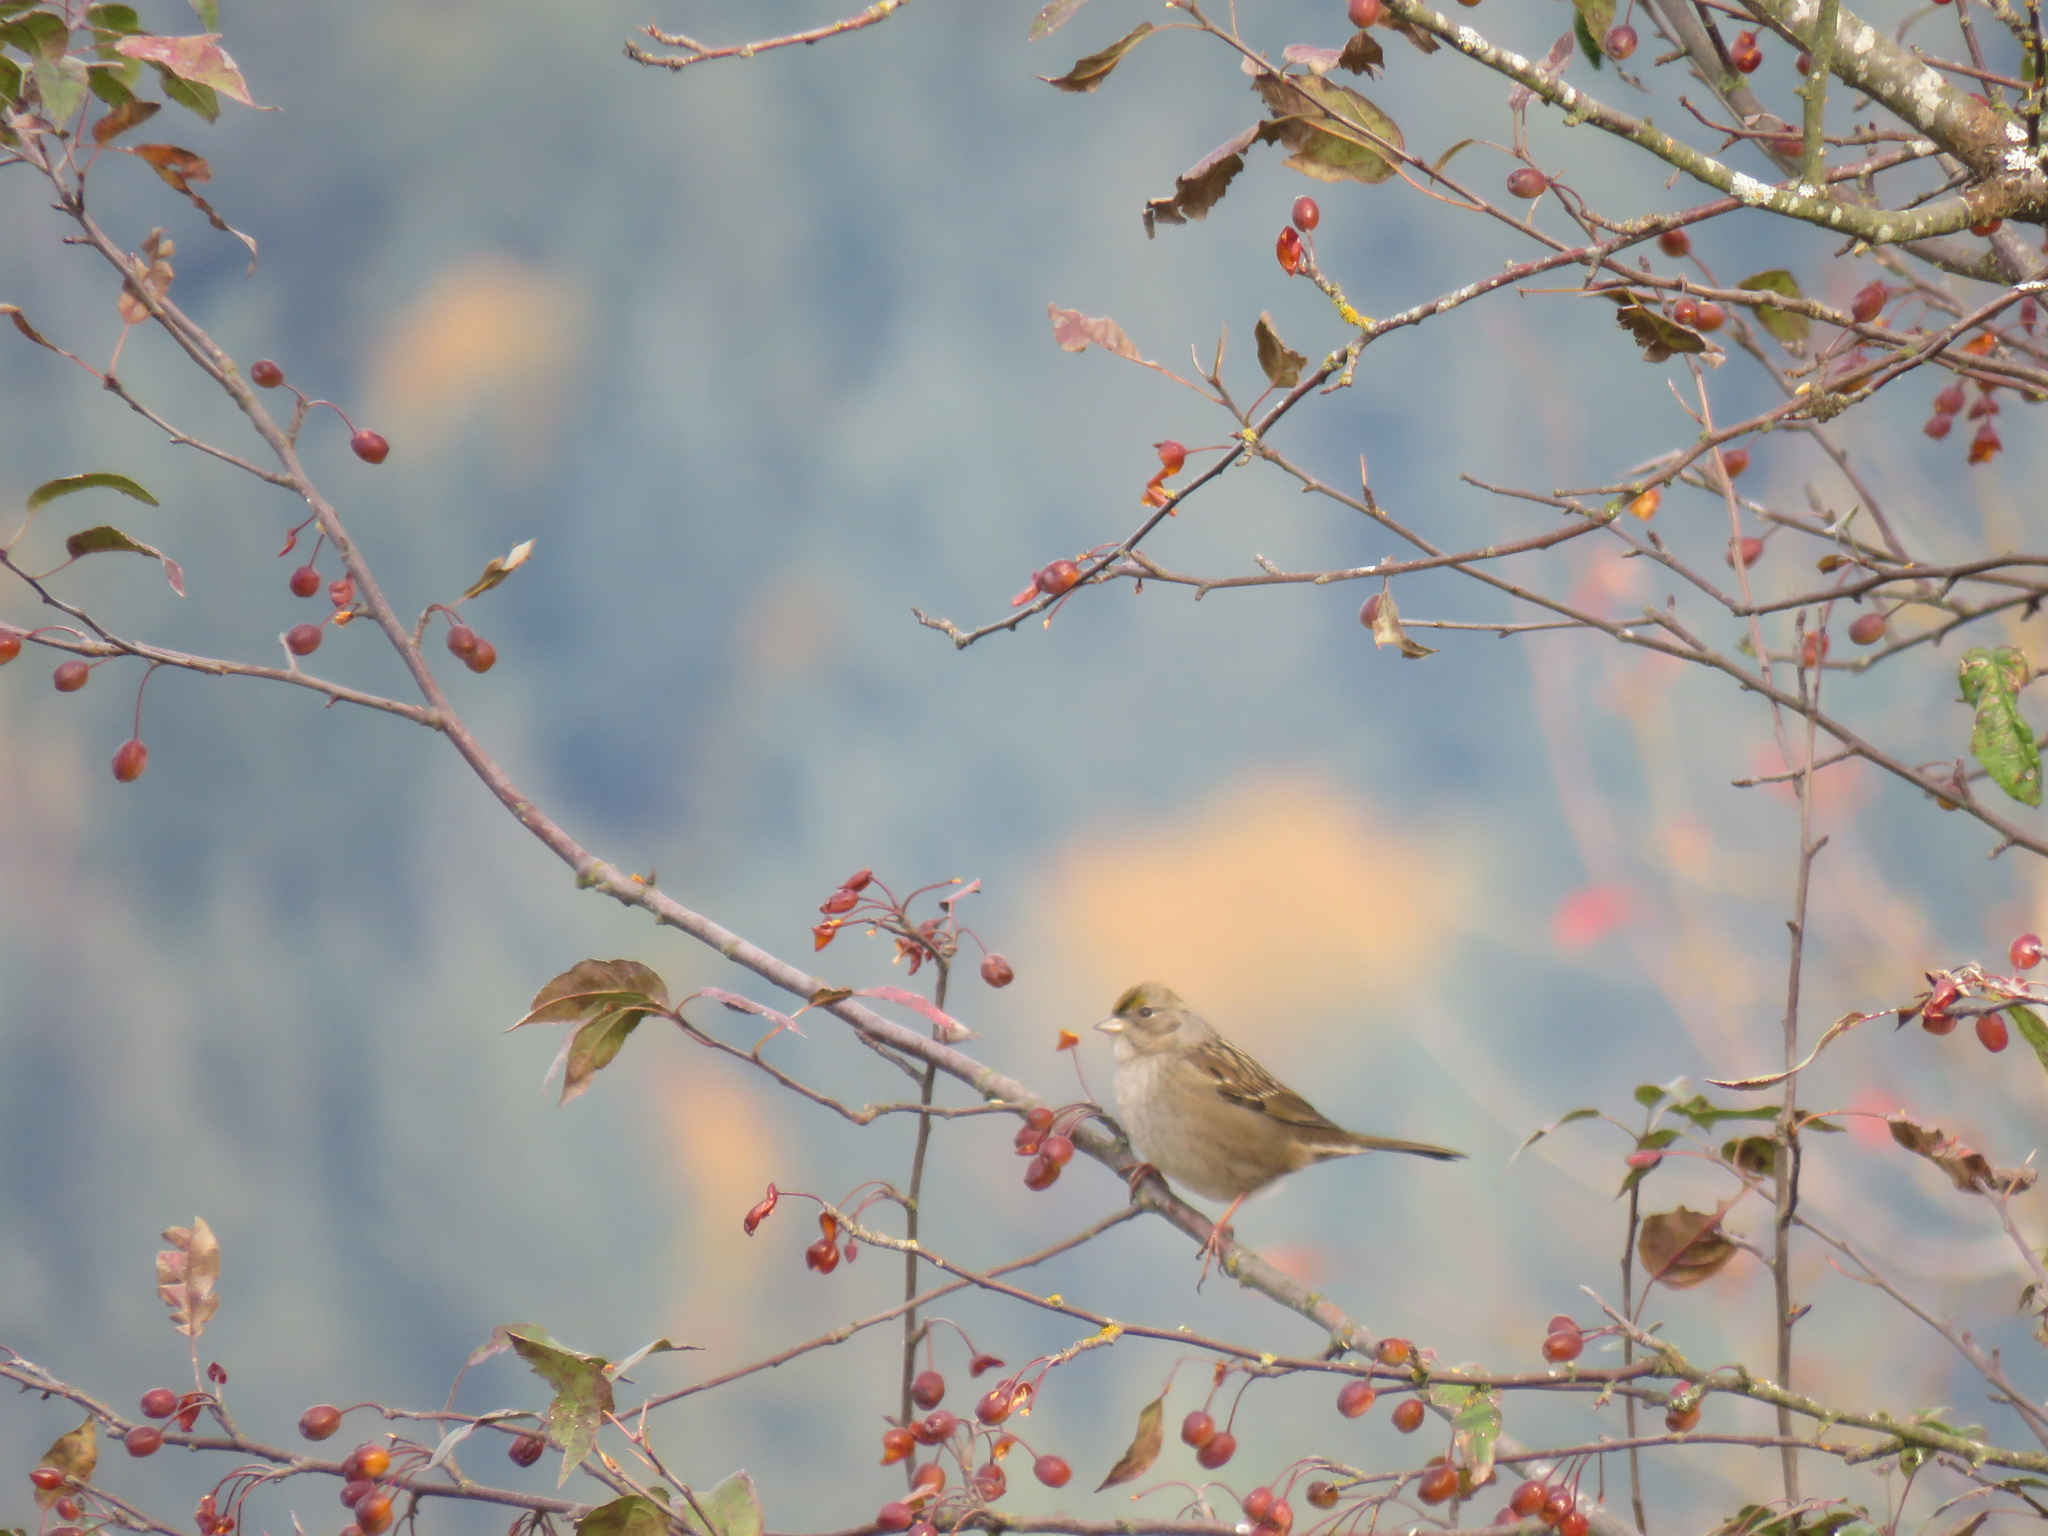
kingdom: Animalia
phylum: Chordata
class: Aves
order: Passeriformes
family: Passerellidae
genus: Zonotrichia
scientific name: Zonotrichia atricapilla
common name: Golden-crowned sparrow
